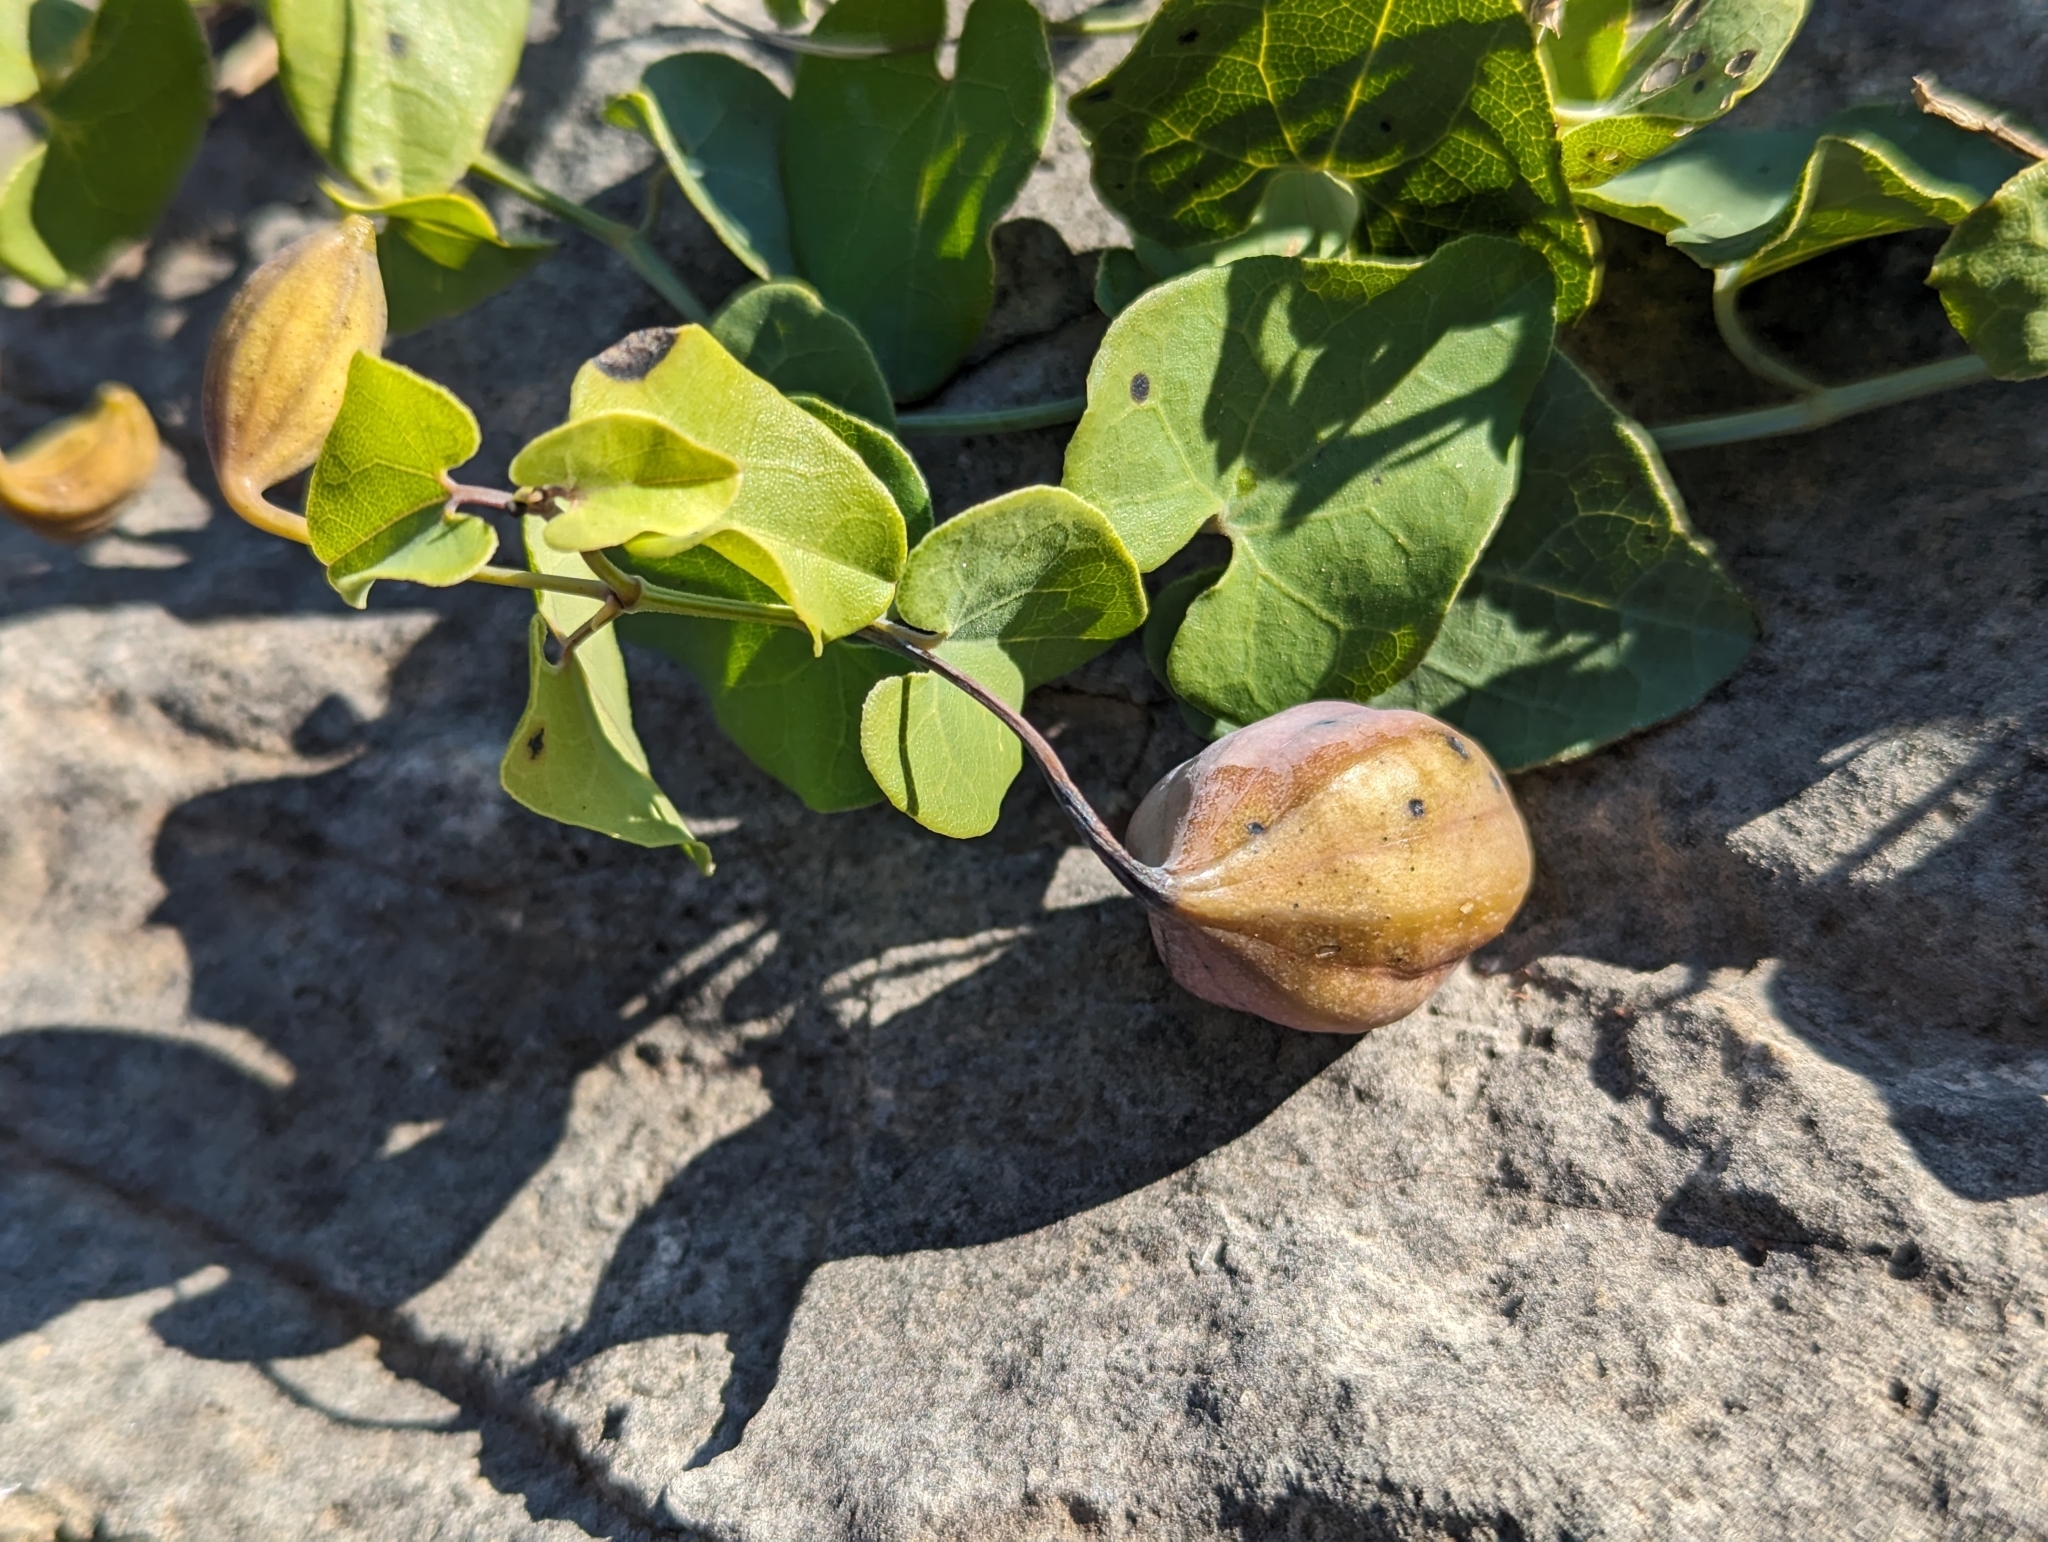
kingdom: Plantae
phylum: Tracheophyta
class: Magnoliopsida
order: Piperales
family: Aristolochiaceae
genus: Aristolochia
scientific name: Aristolochia baetica
